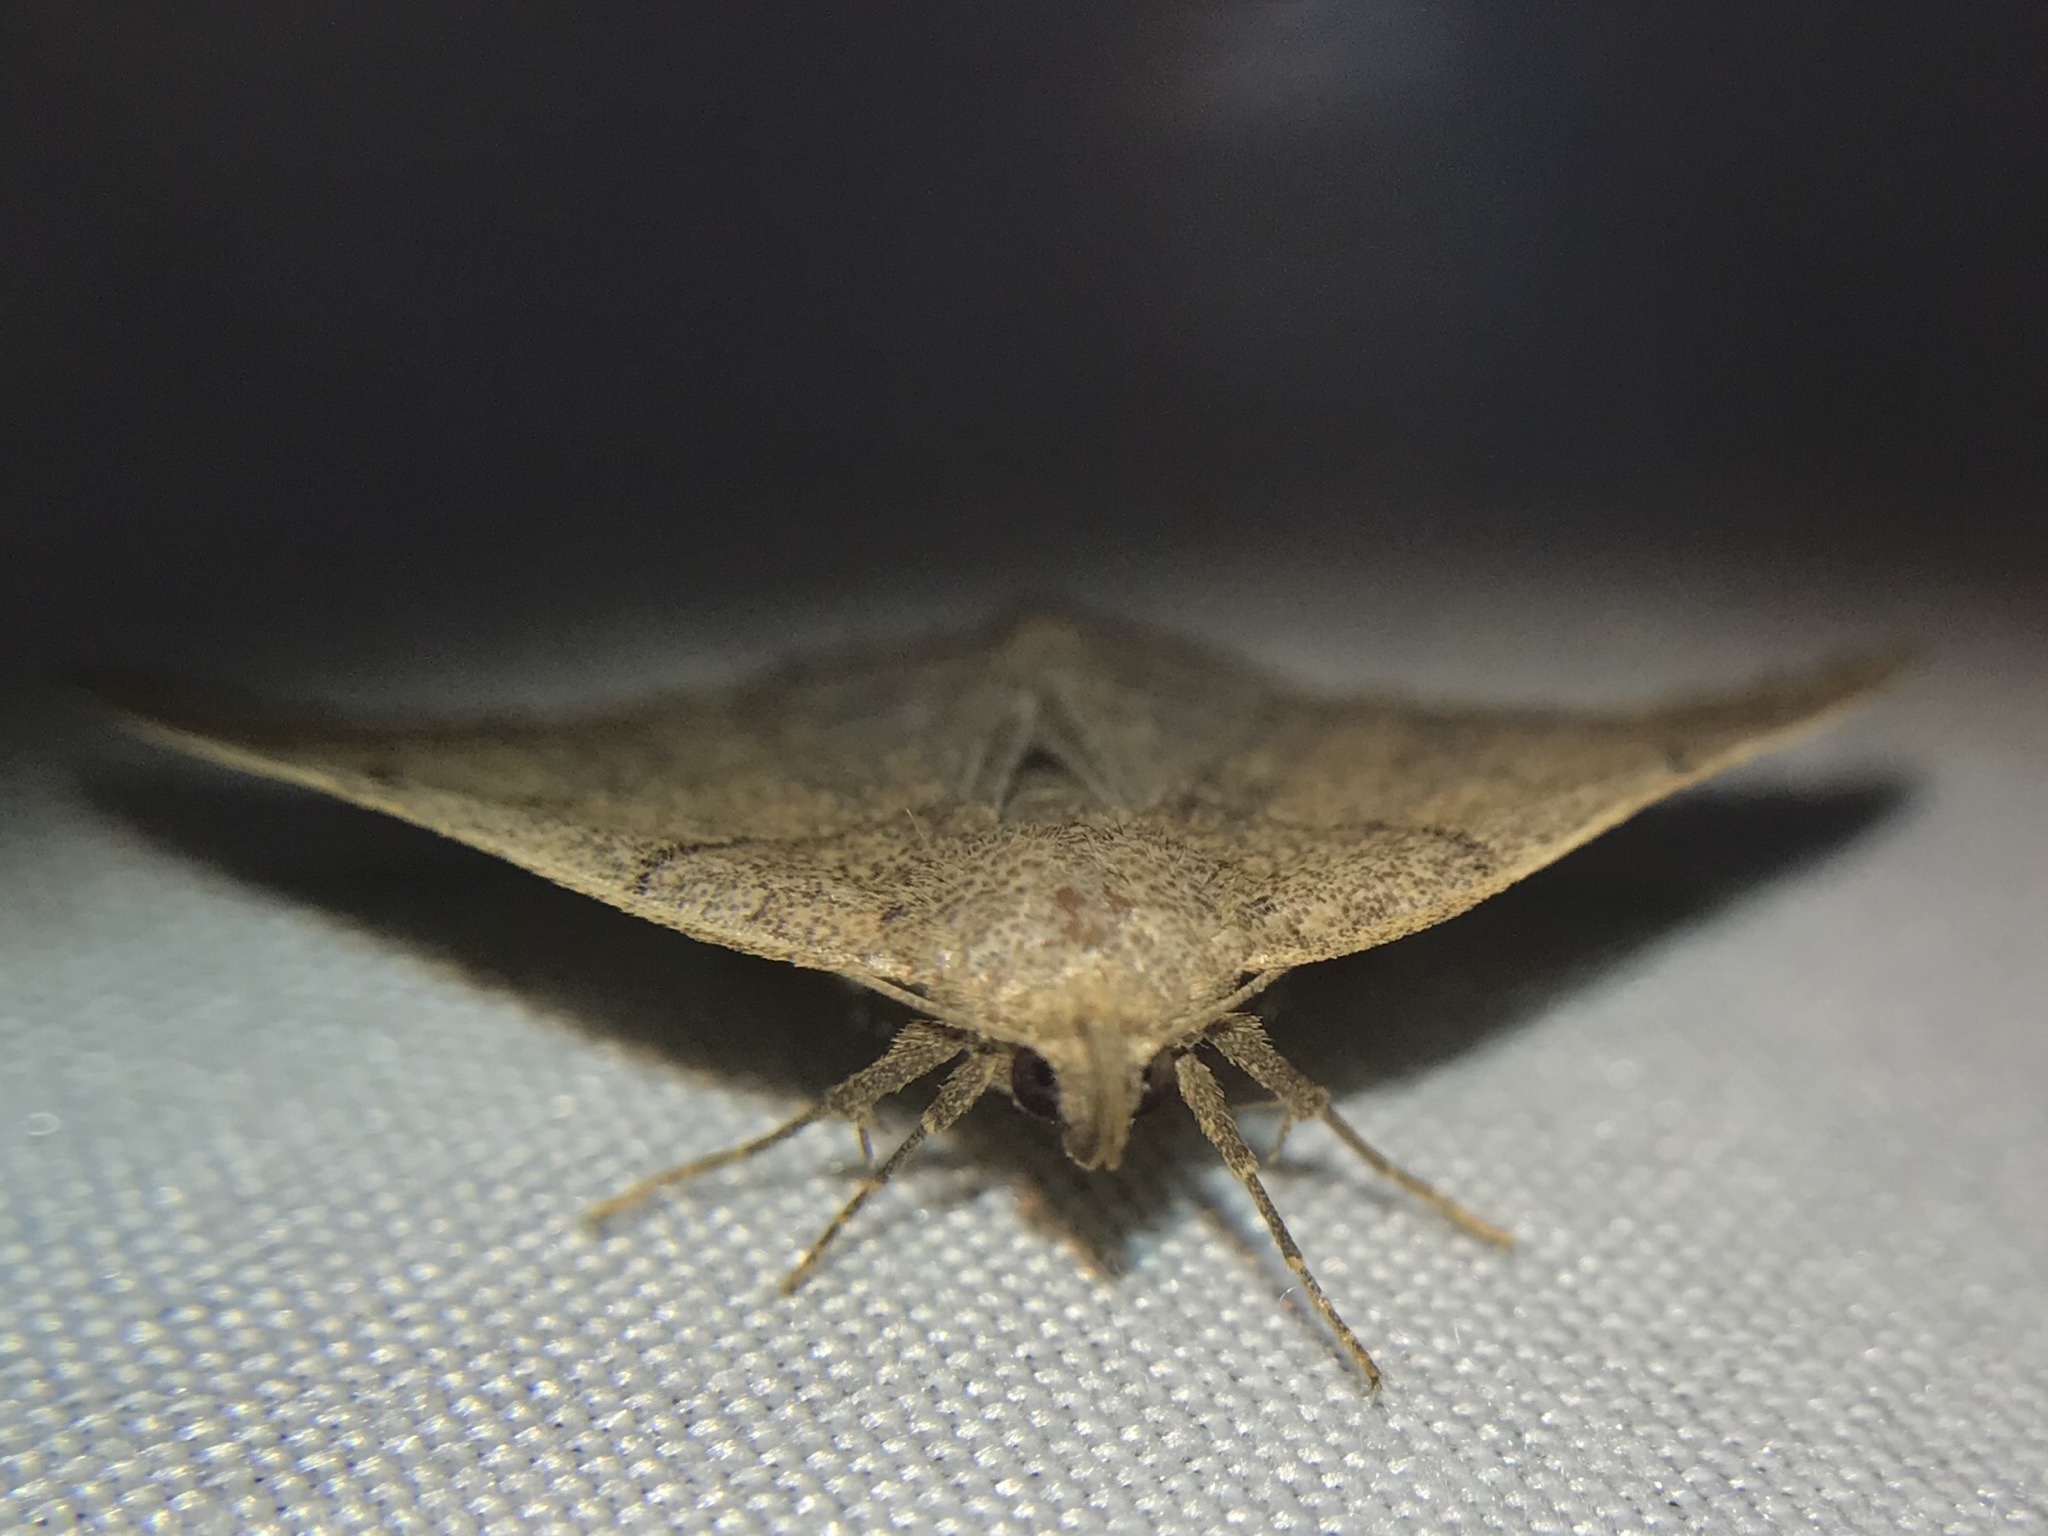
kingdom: Animalia
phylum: Arthropoda
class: Insecta
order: Lepidoptera
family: Erebidae
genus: Zanclognatha
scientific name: Zanclognatha cruralis
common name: Early fan-foot
